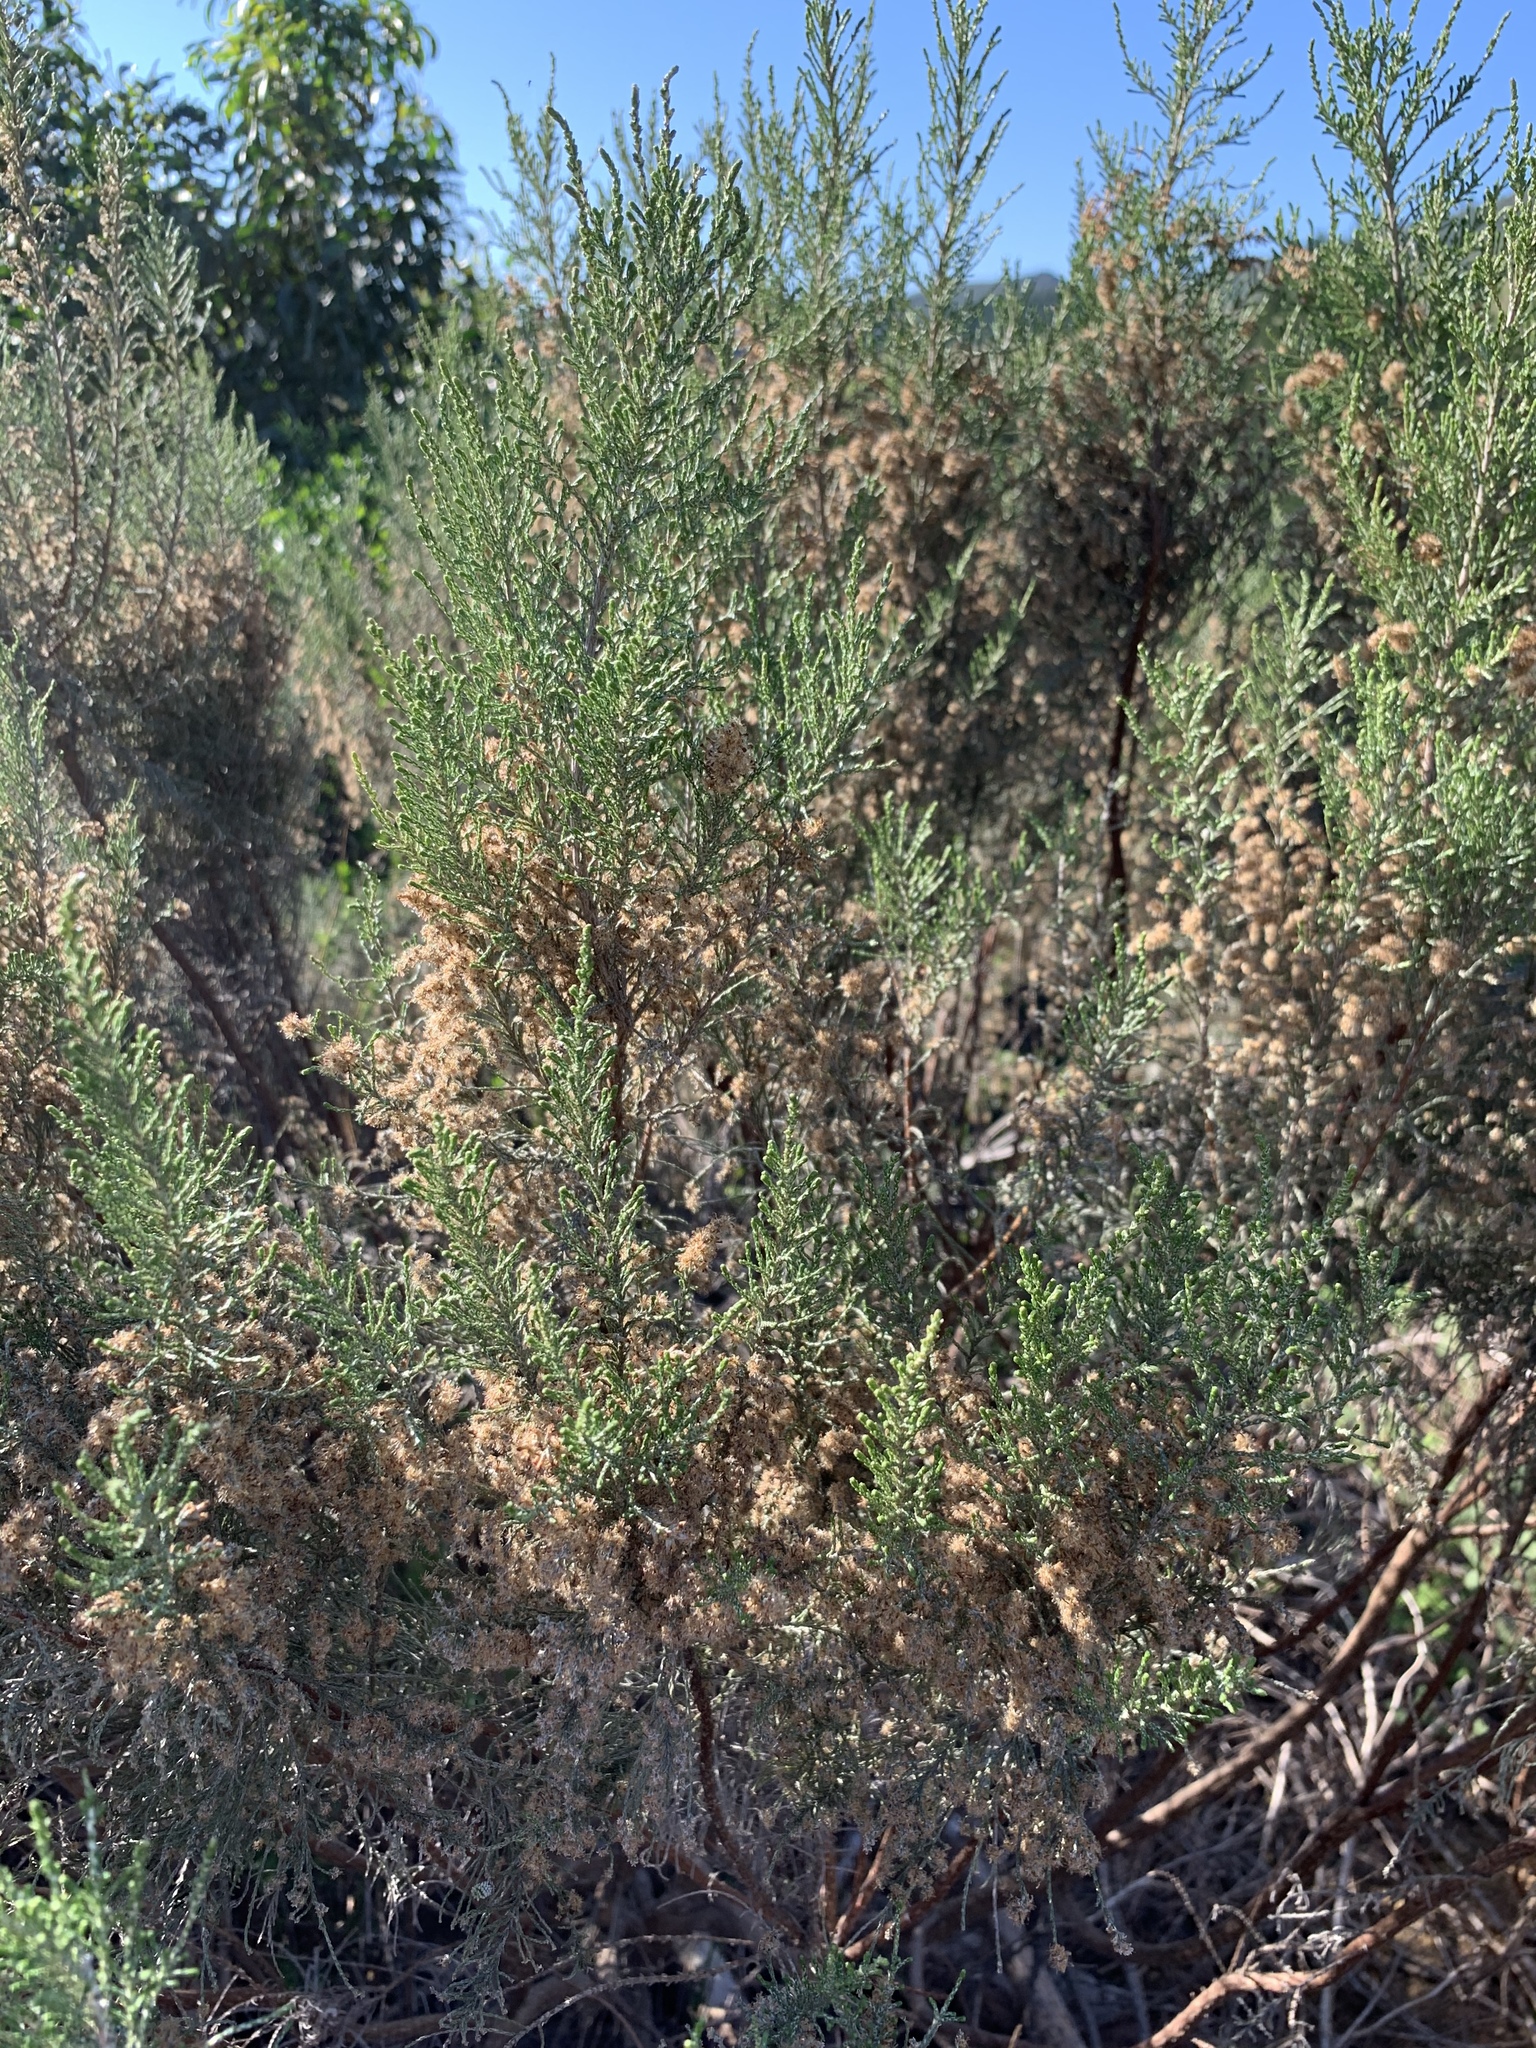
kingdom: Plantae
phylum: Tracheophyta
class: Magnoliopsida
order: Asterales
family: Asteraceae
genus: Dicerothamnus
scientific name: Dicerothamnus rhinocerotis
